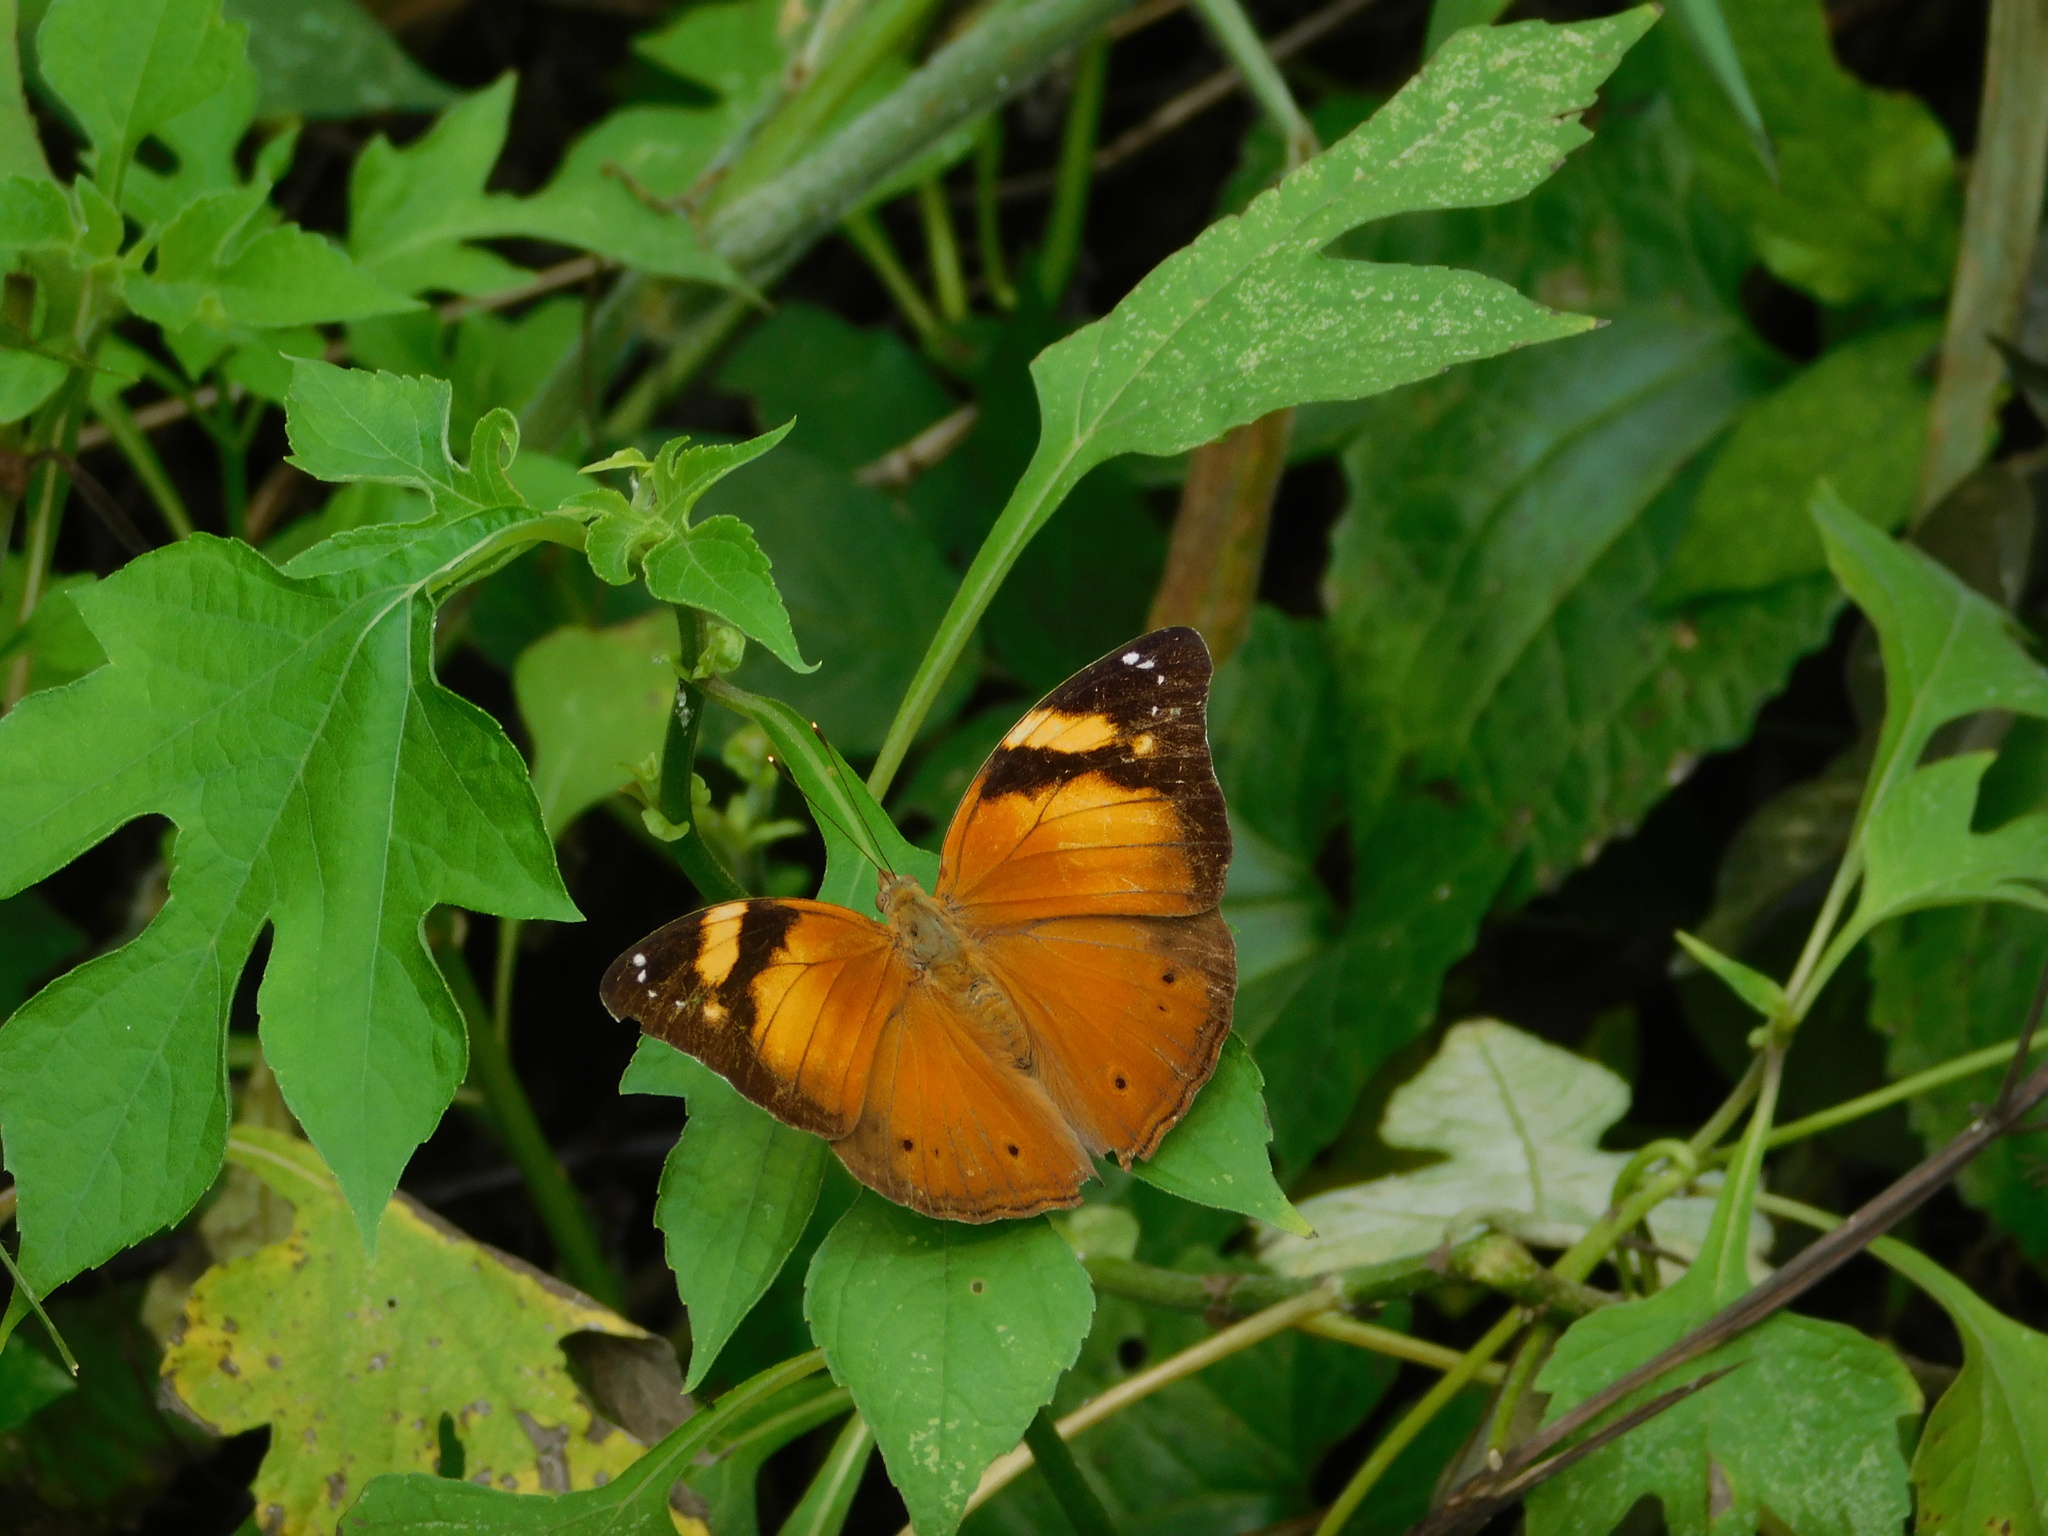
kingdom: Animalia
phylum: Arthropoda
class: Insecta
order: Lepidoptera
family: Nymphalidae
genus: Doleschallia
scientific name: Doleschallia bisaltide
